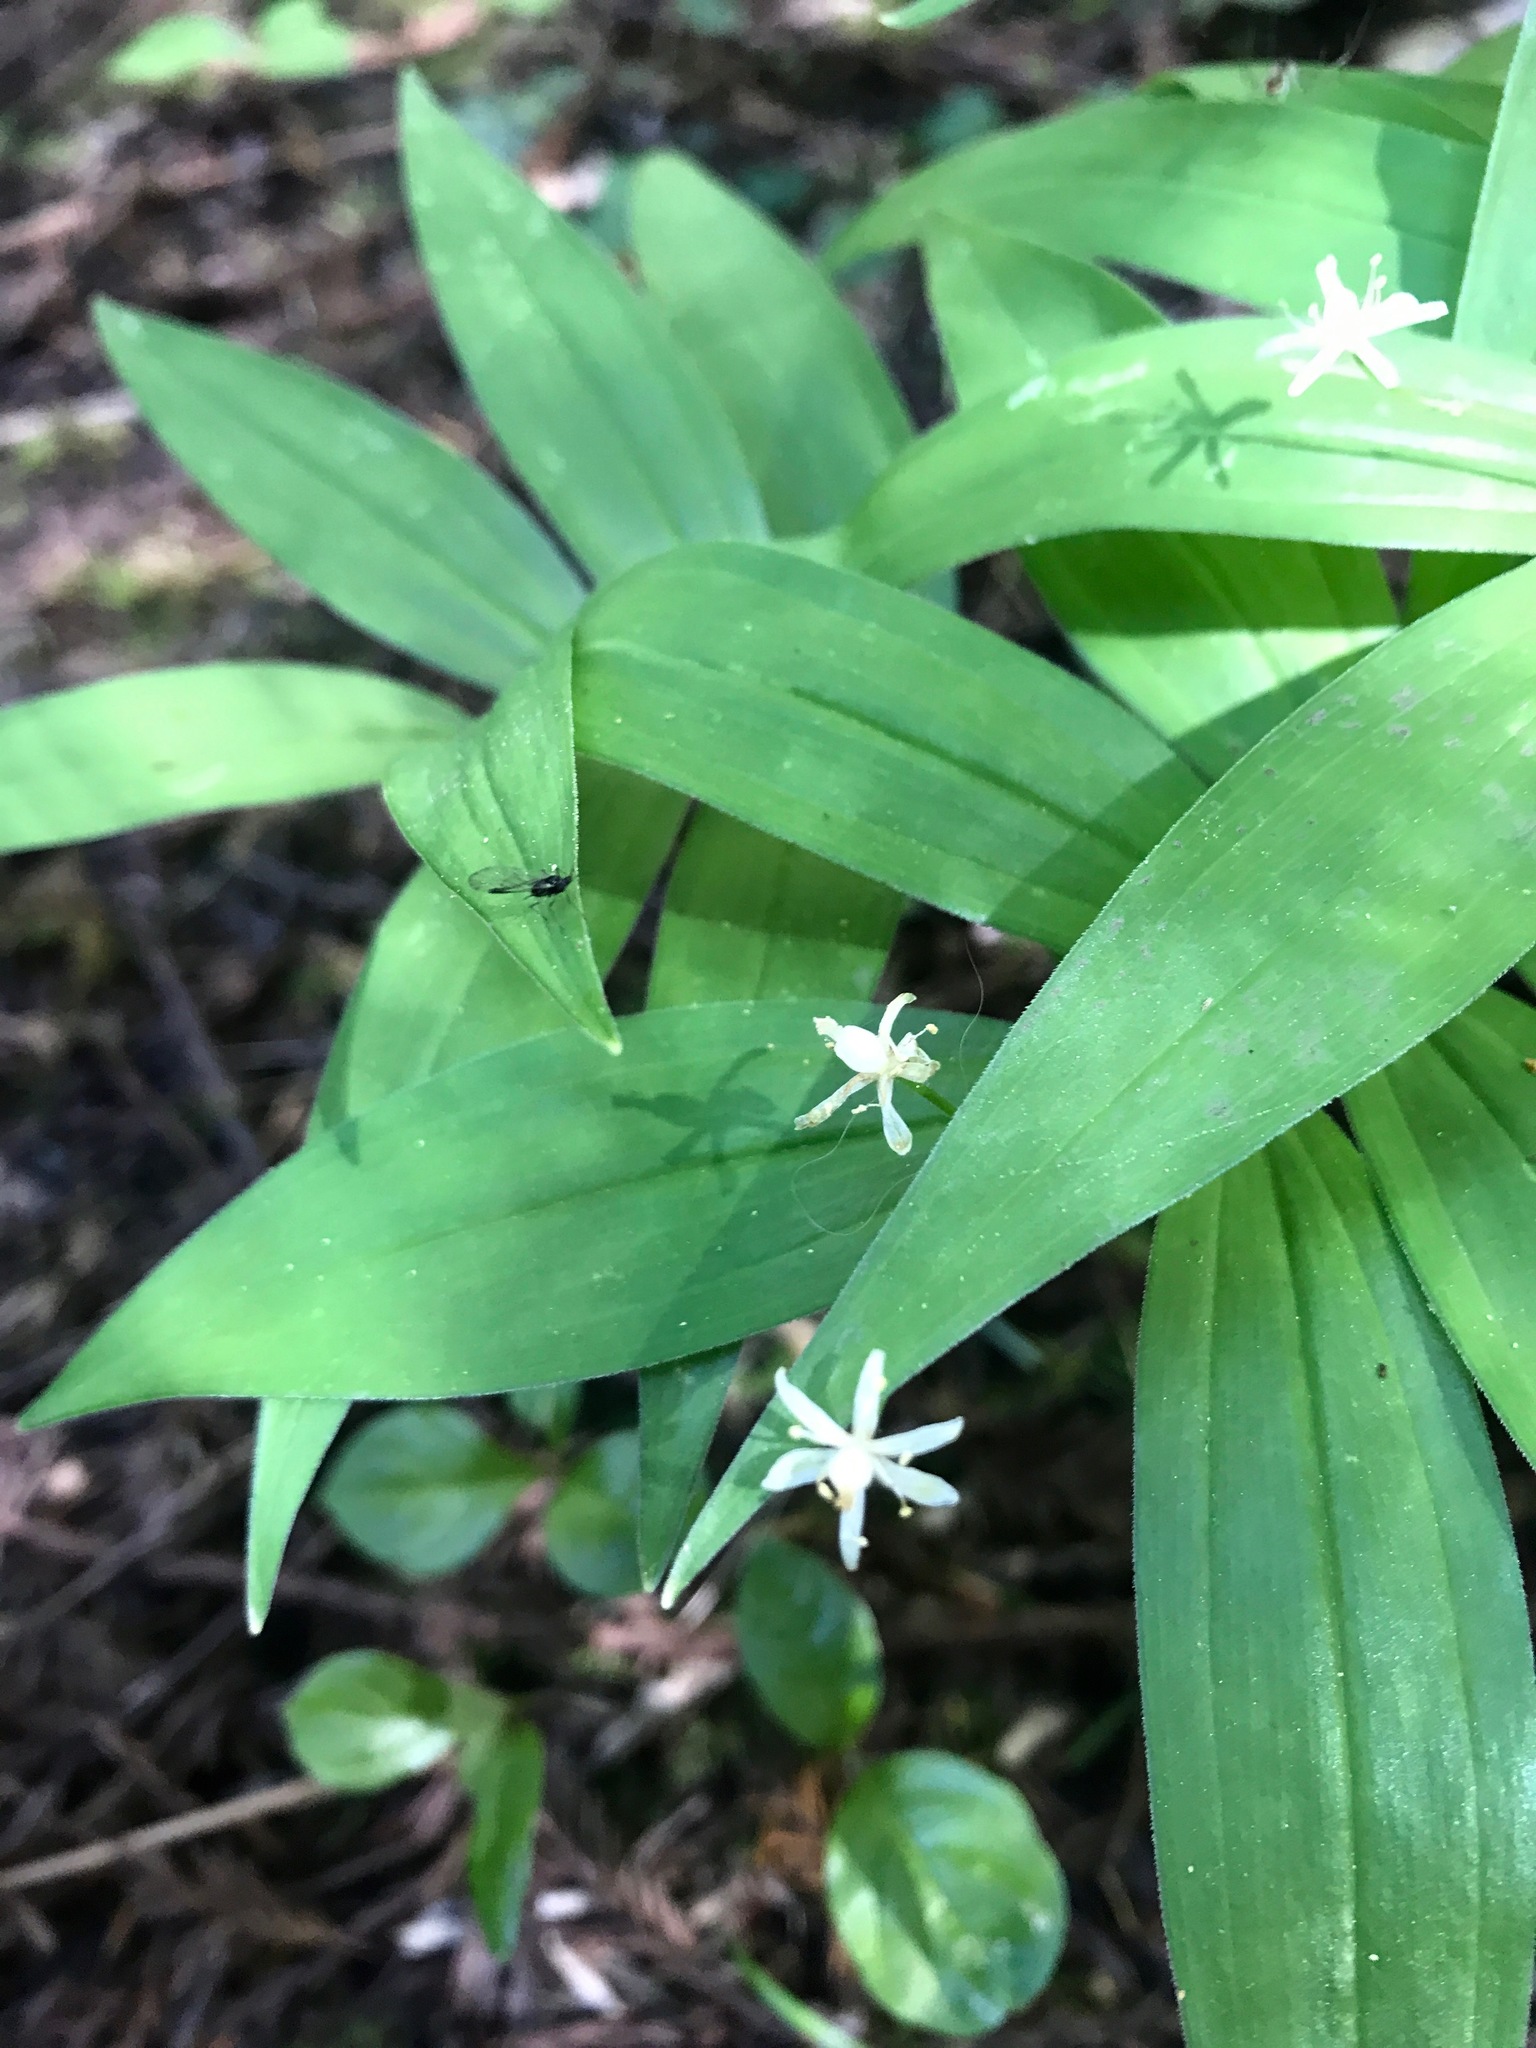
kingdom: Plantae
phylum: Tracheophyta
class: Liliopsida
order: Asparagales
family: Asparagaceae
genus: Maianthemum
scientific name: Maianthemum stellatum
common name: Little false solomon's seal
